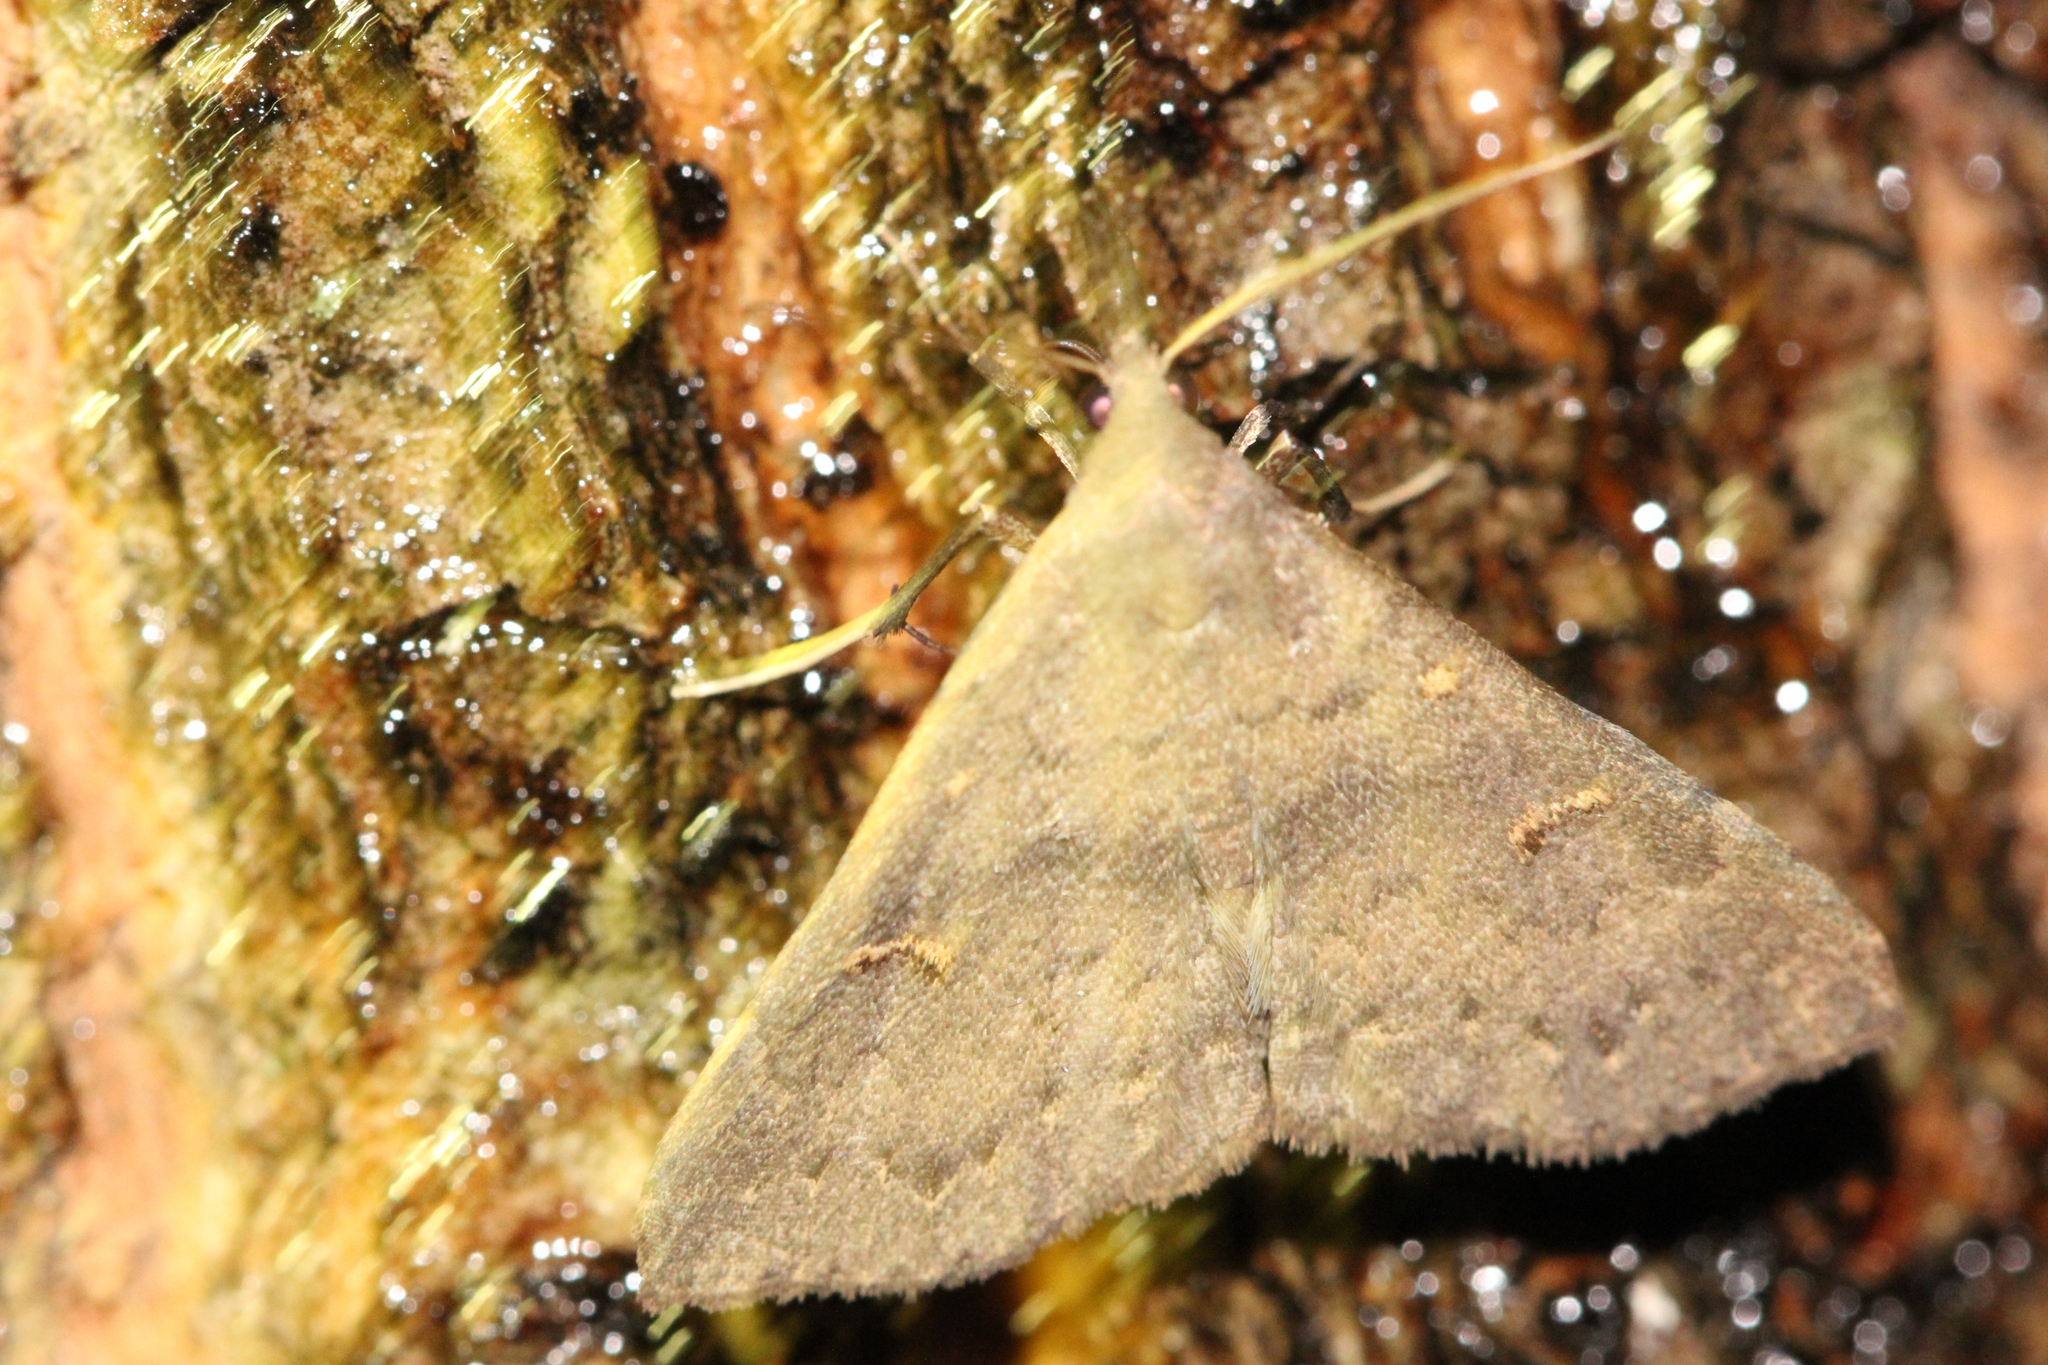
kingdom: Animalia
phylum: Arthropoda
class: Insecta
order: Lepidoptera
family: Erebidae
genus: Renia
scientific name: Renia adspergillus
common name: Speckled renia moth
